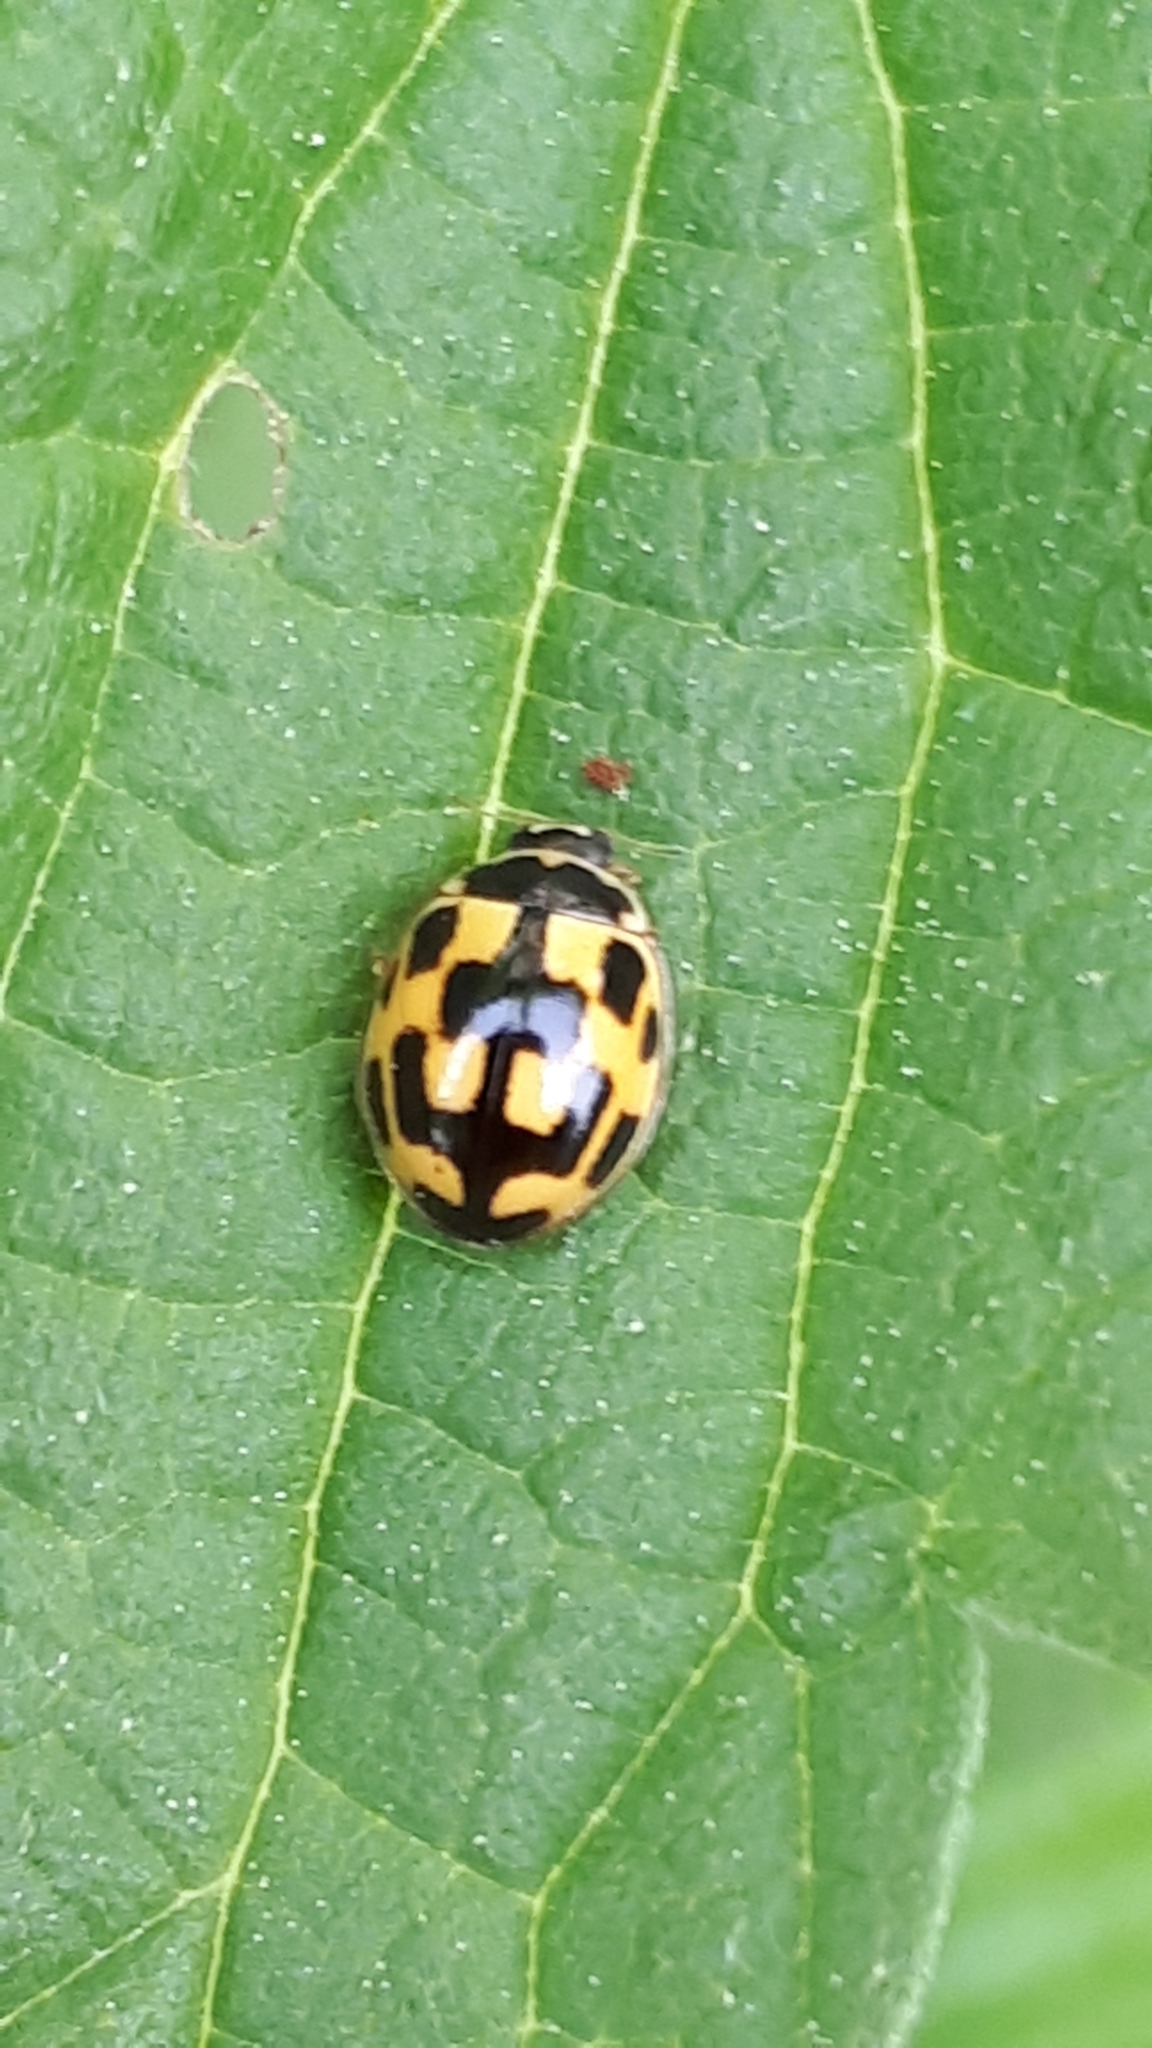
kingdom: Animalia
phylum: Arthropoda
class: Insecta
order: Coleoptera
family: Coccinellidae
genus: Propylaea
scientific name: Propylaea quatuordecimpunctata
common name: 14-spotted ladybird beetle
